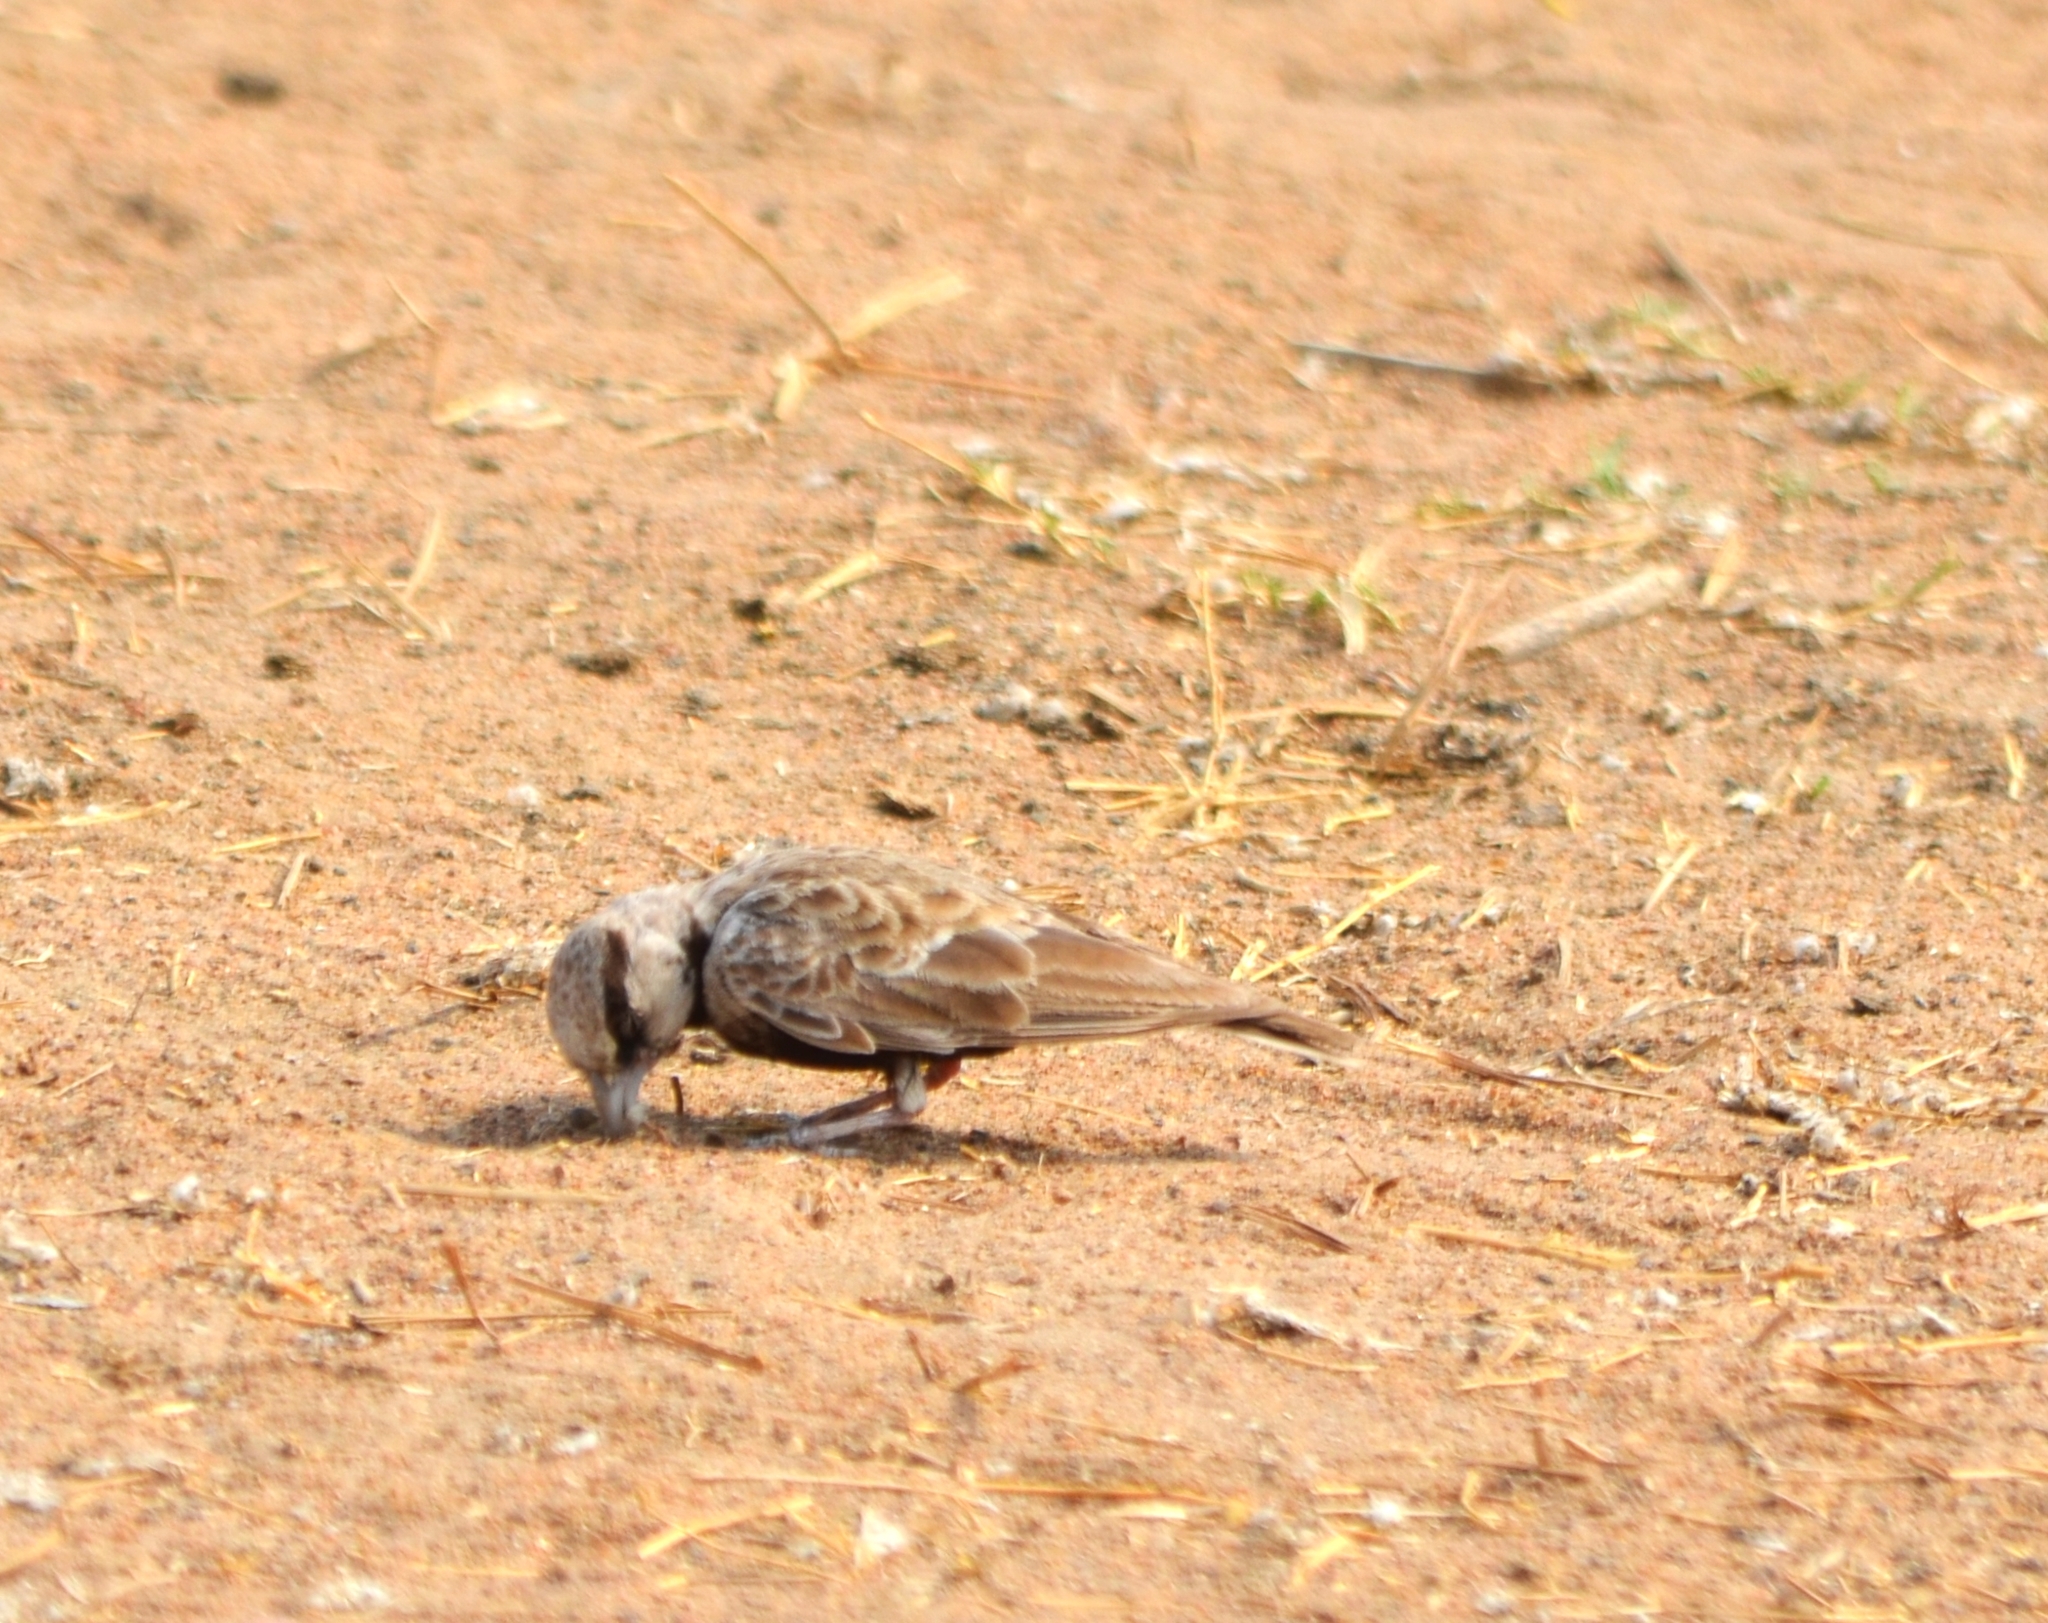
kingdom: Animalia
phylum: Chordata
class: Aves
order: Passeriformes
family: Alaudidae
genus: Eremopterix
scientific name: Eremopterix griseus
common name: Ashy-crowned sparrow-lark
